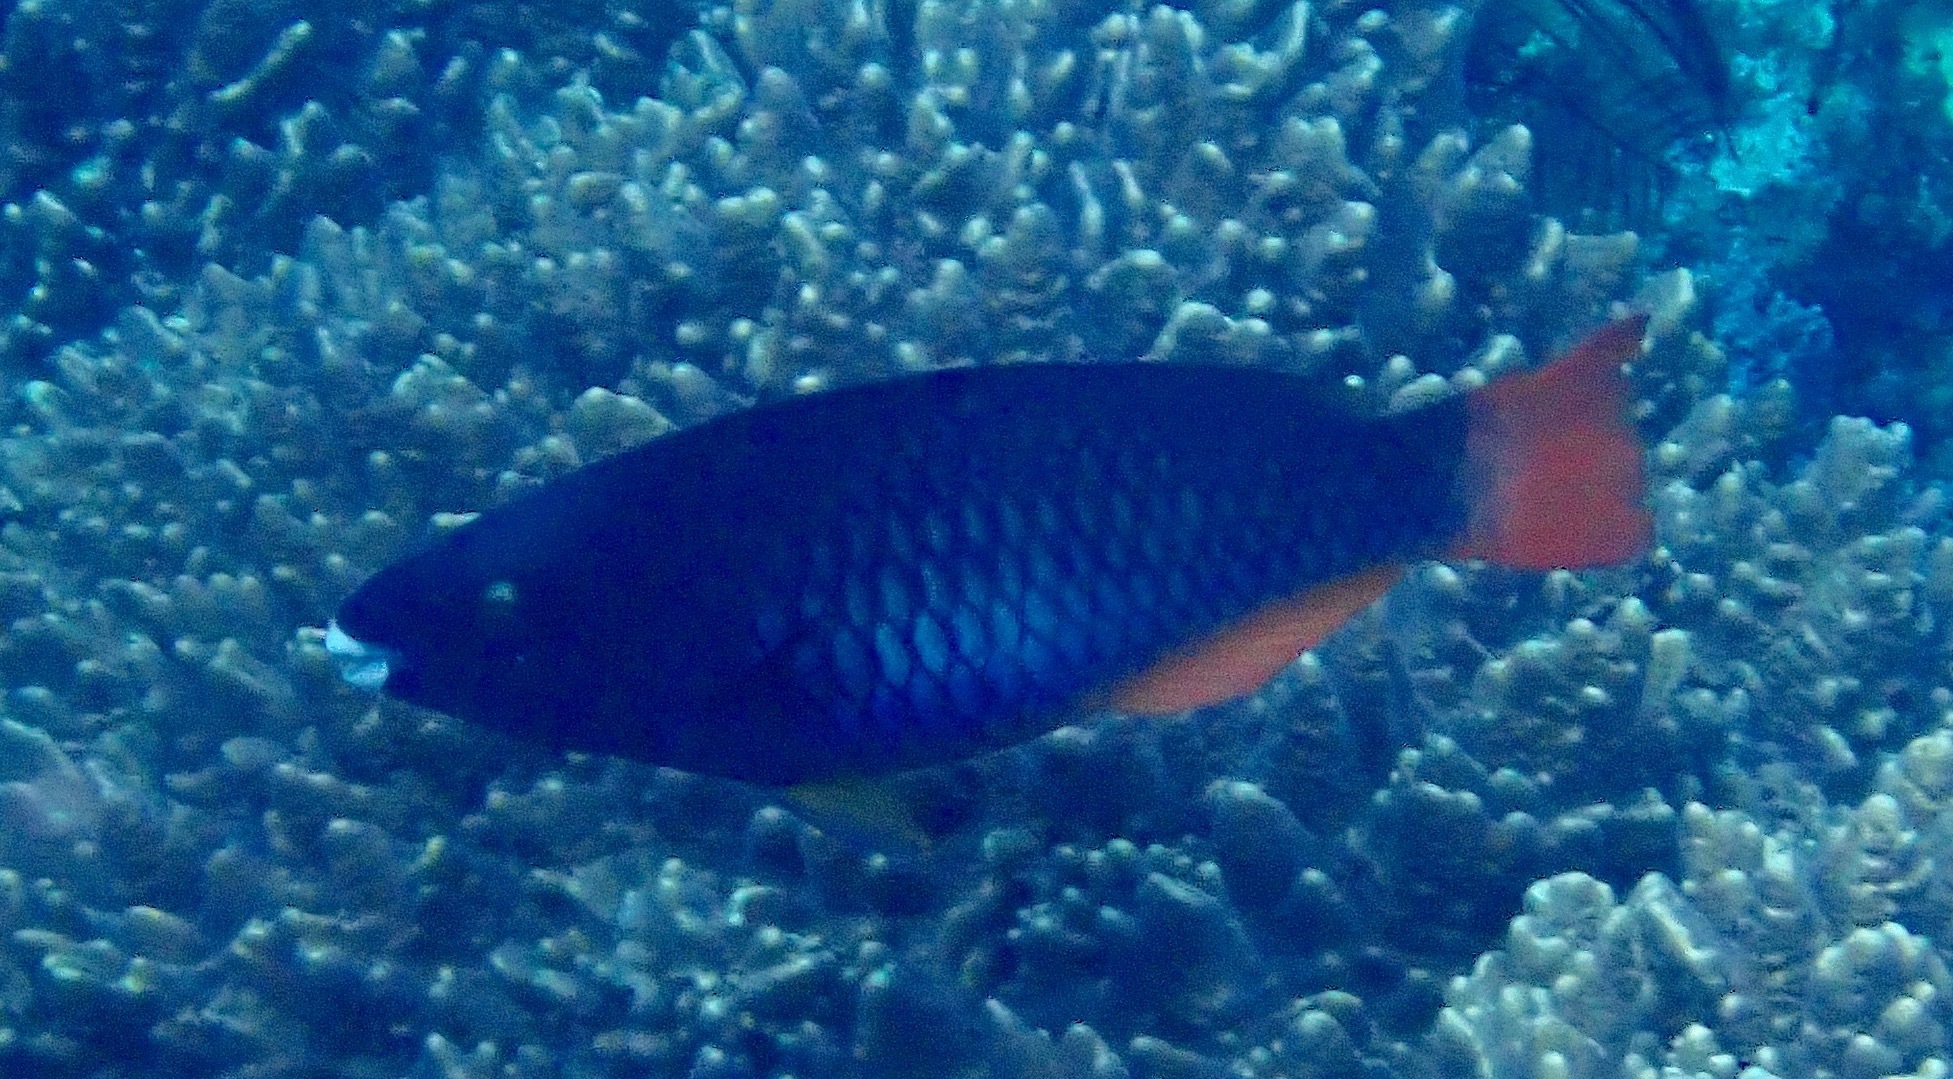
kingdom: Animalia
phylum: Chordata
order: Perciformes
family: Scaridae
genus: Scarus
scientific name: Scarus tricolor
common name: Tricolour parrotfish
